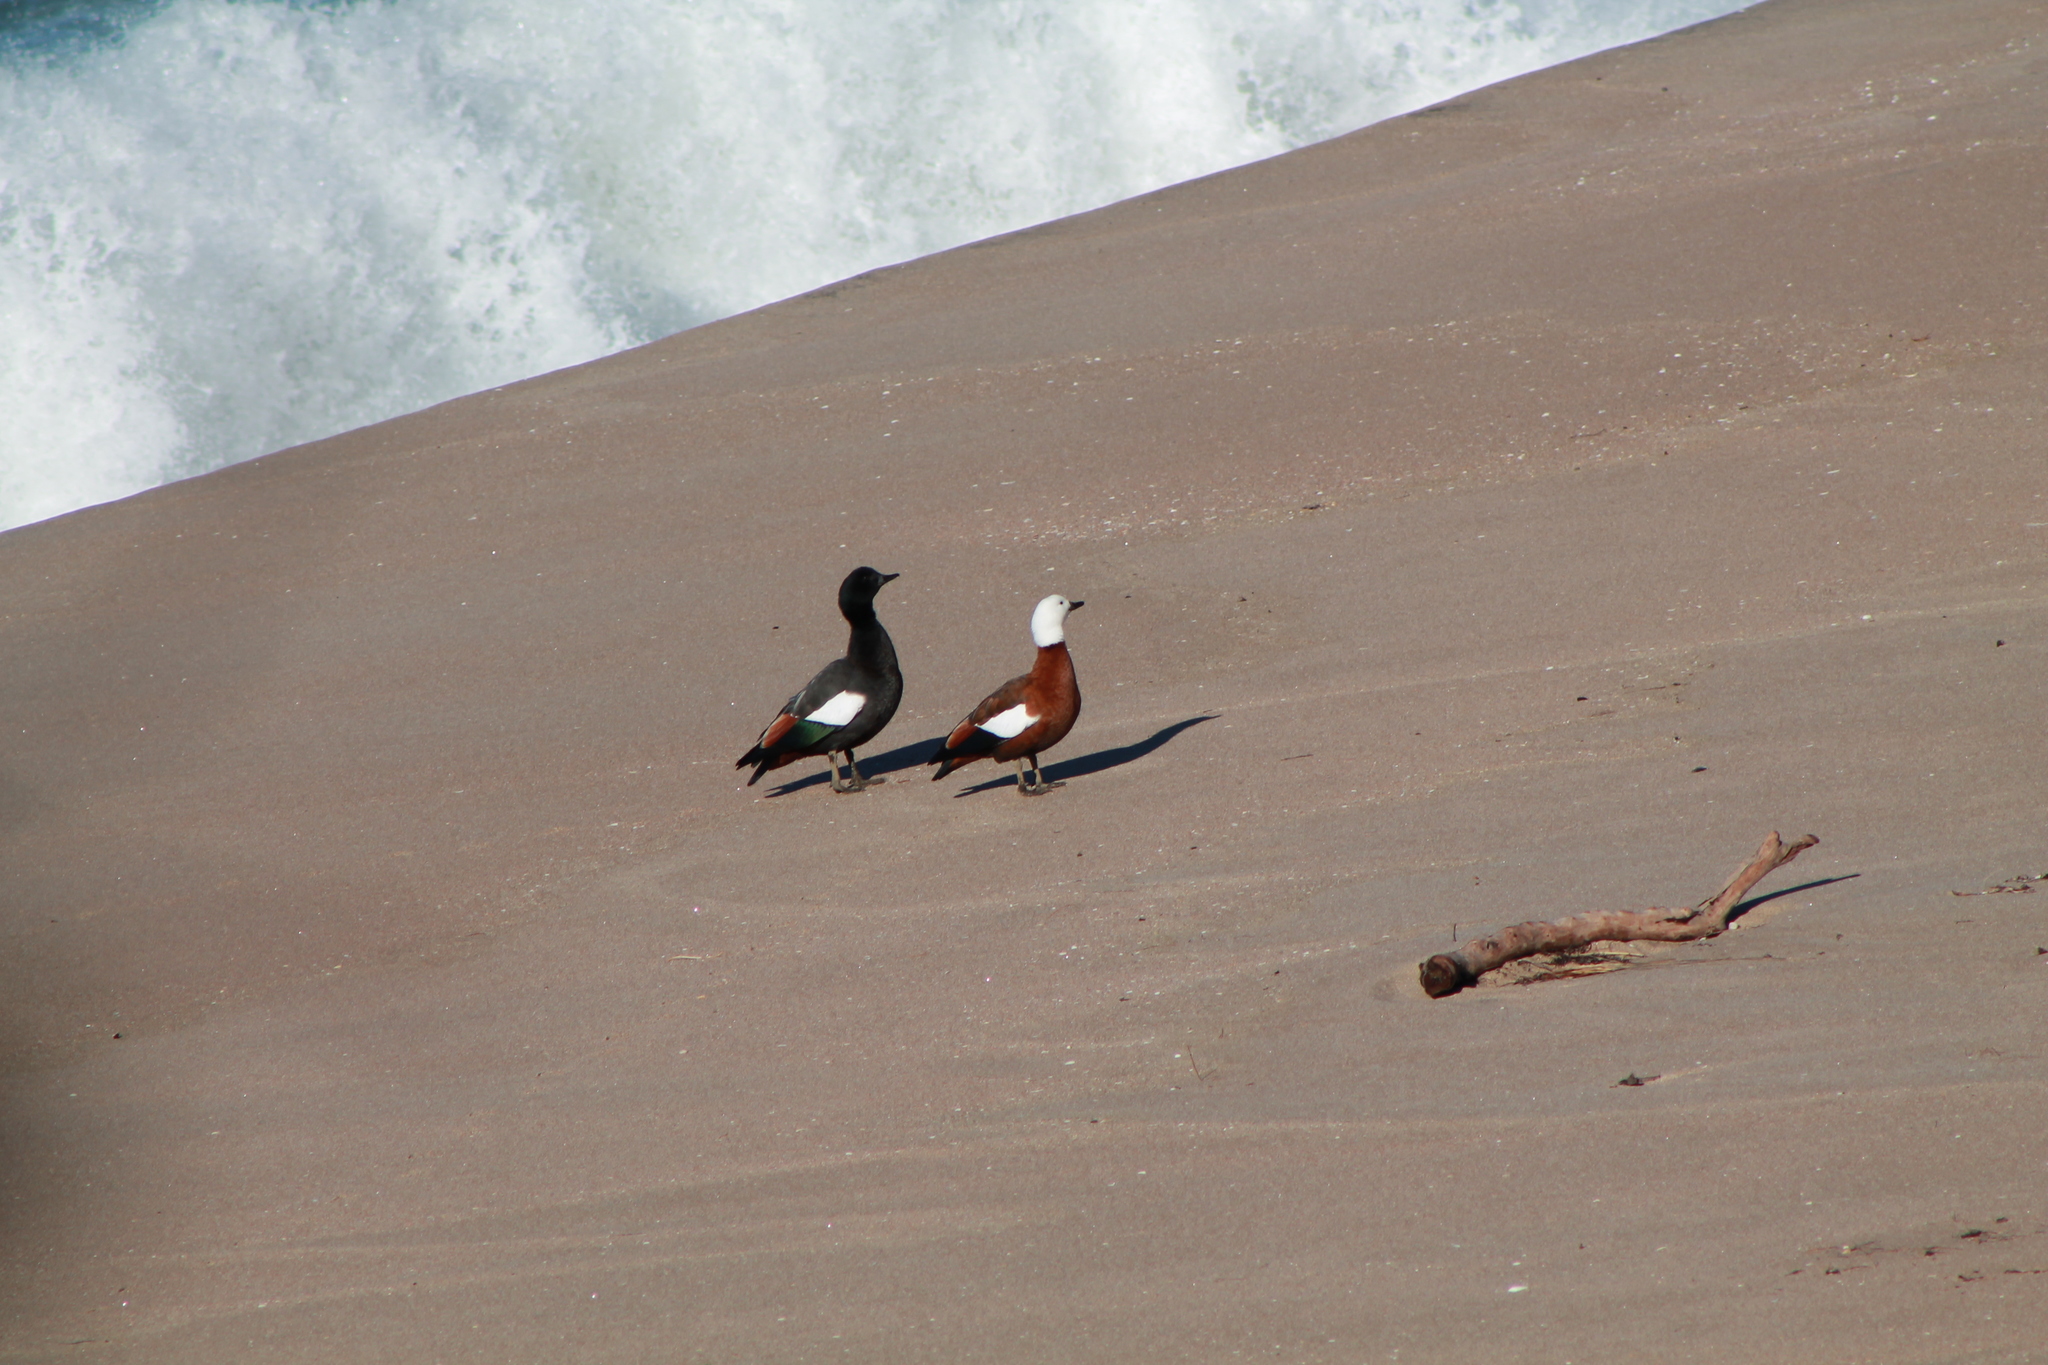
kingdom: Animalia
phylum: Chordata
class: Aves
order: Anseriformes
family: Anatidae
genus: Tadorna
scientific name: Tadorna variegata
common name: Paradise shelduck
